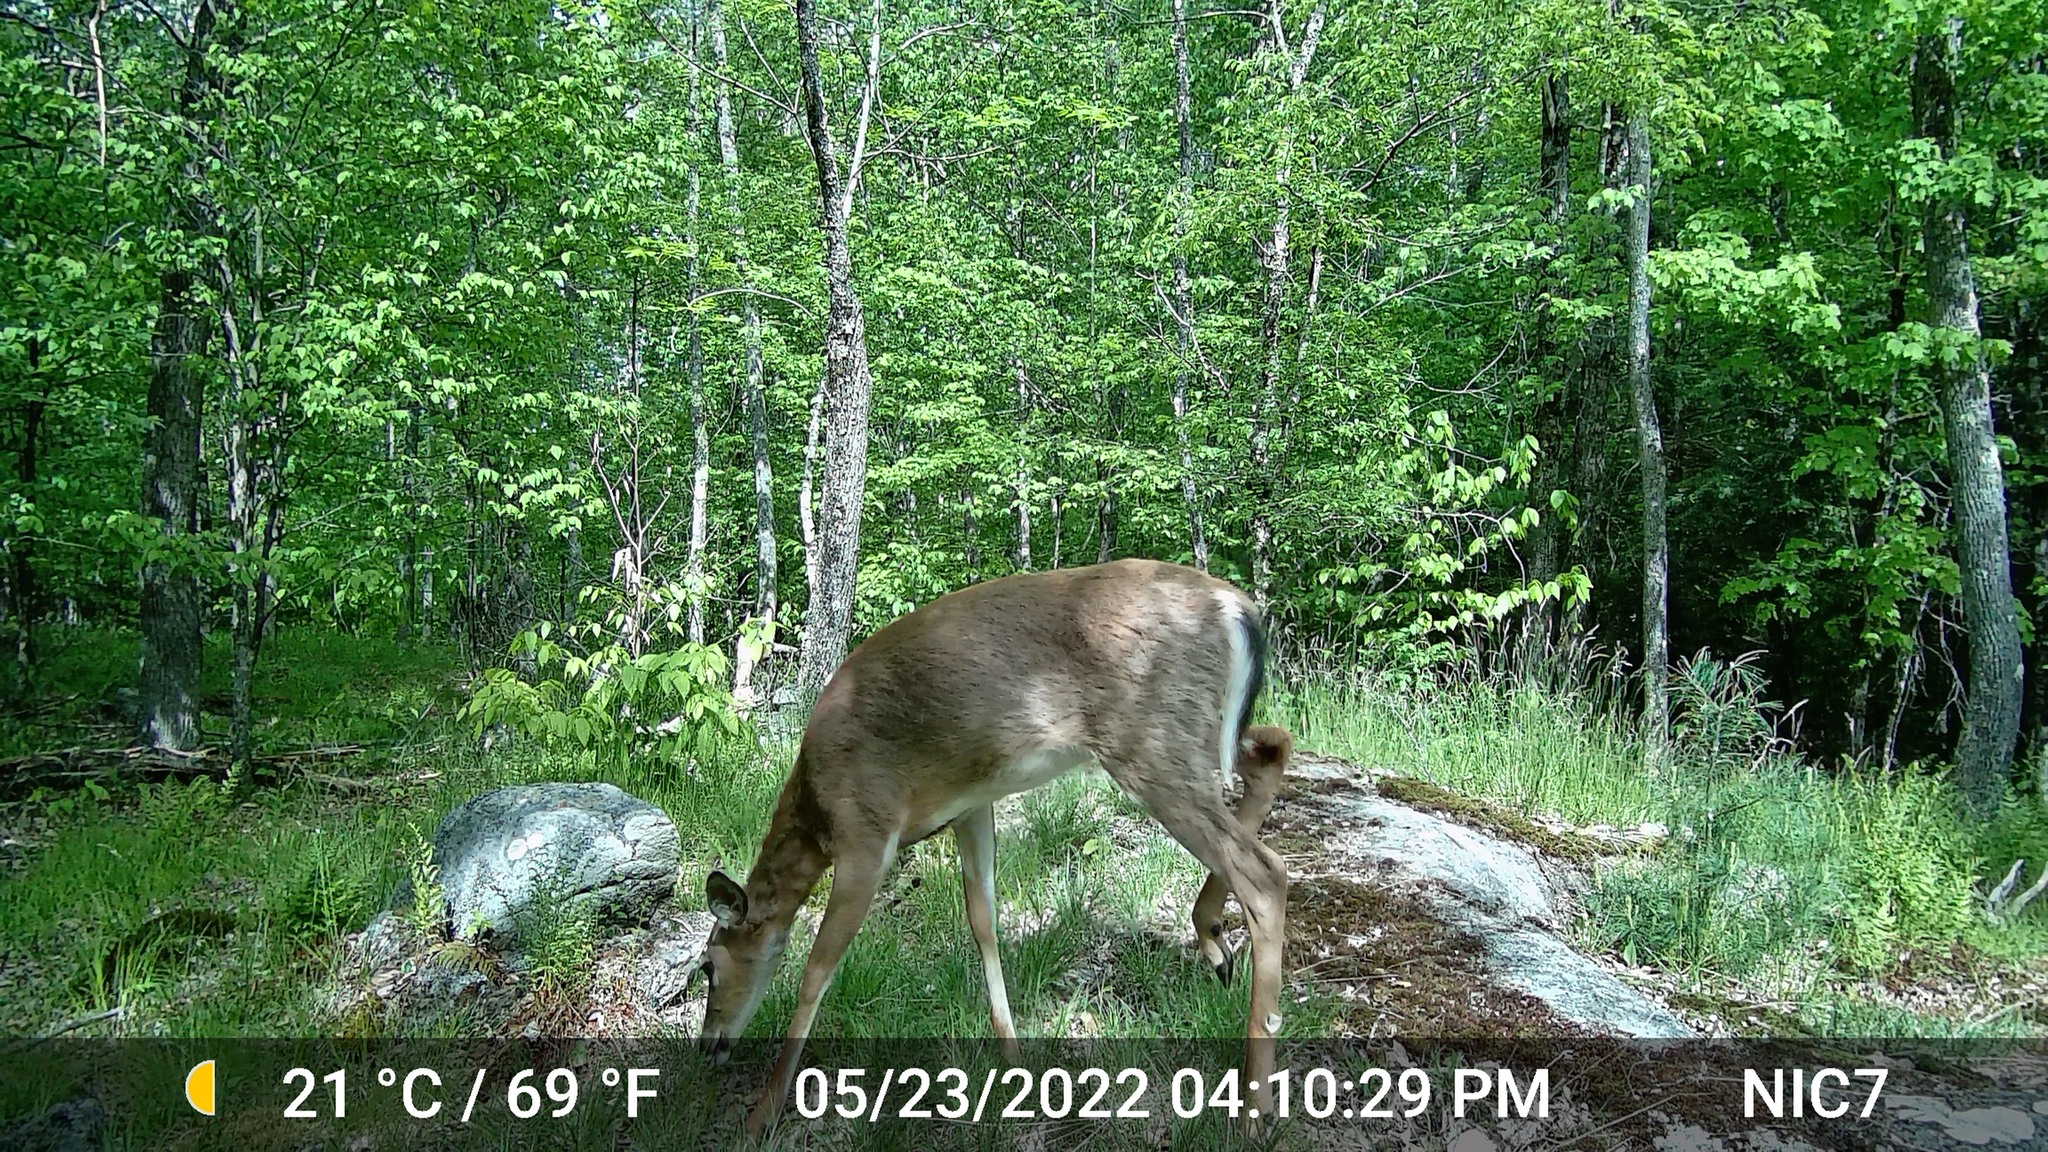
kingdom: Animalia
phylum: Chordata
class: Mammalia
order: Artiodactyla
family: Cervidae
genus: Odocoileus
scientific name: Odocoileus virginianus
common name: White-tailed deer
